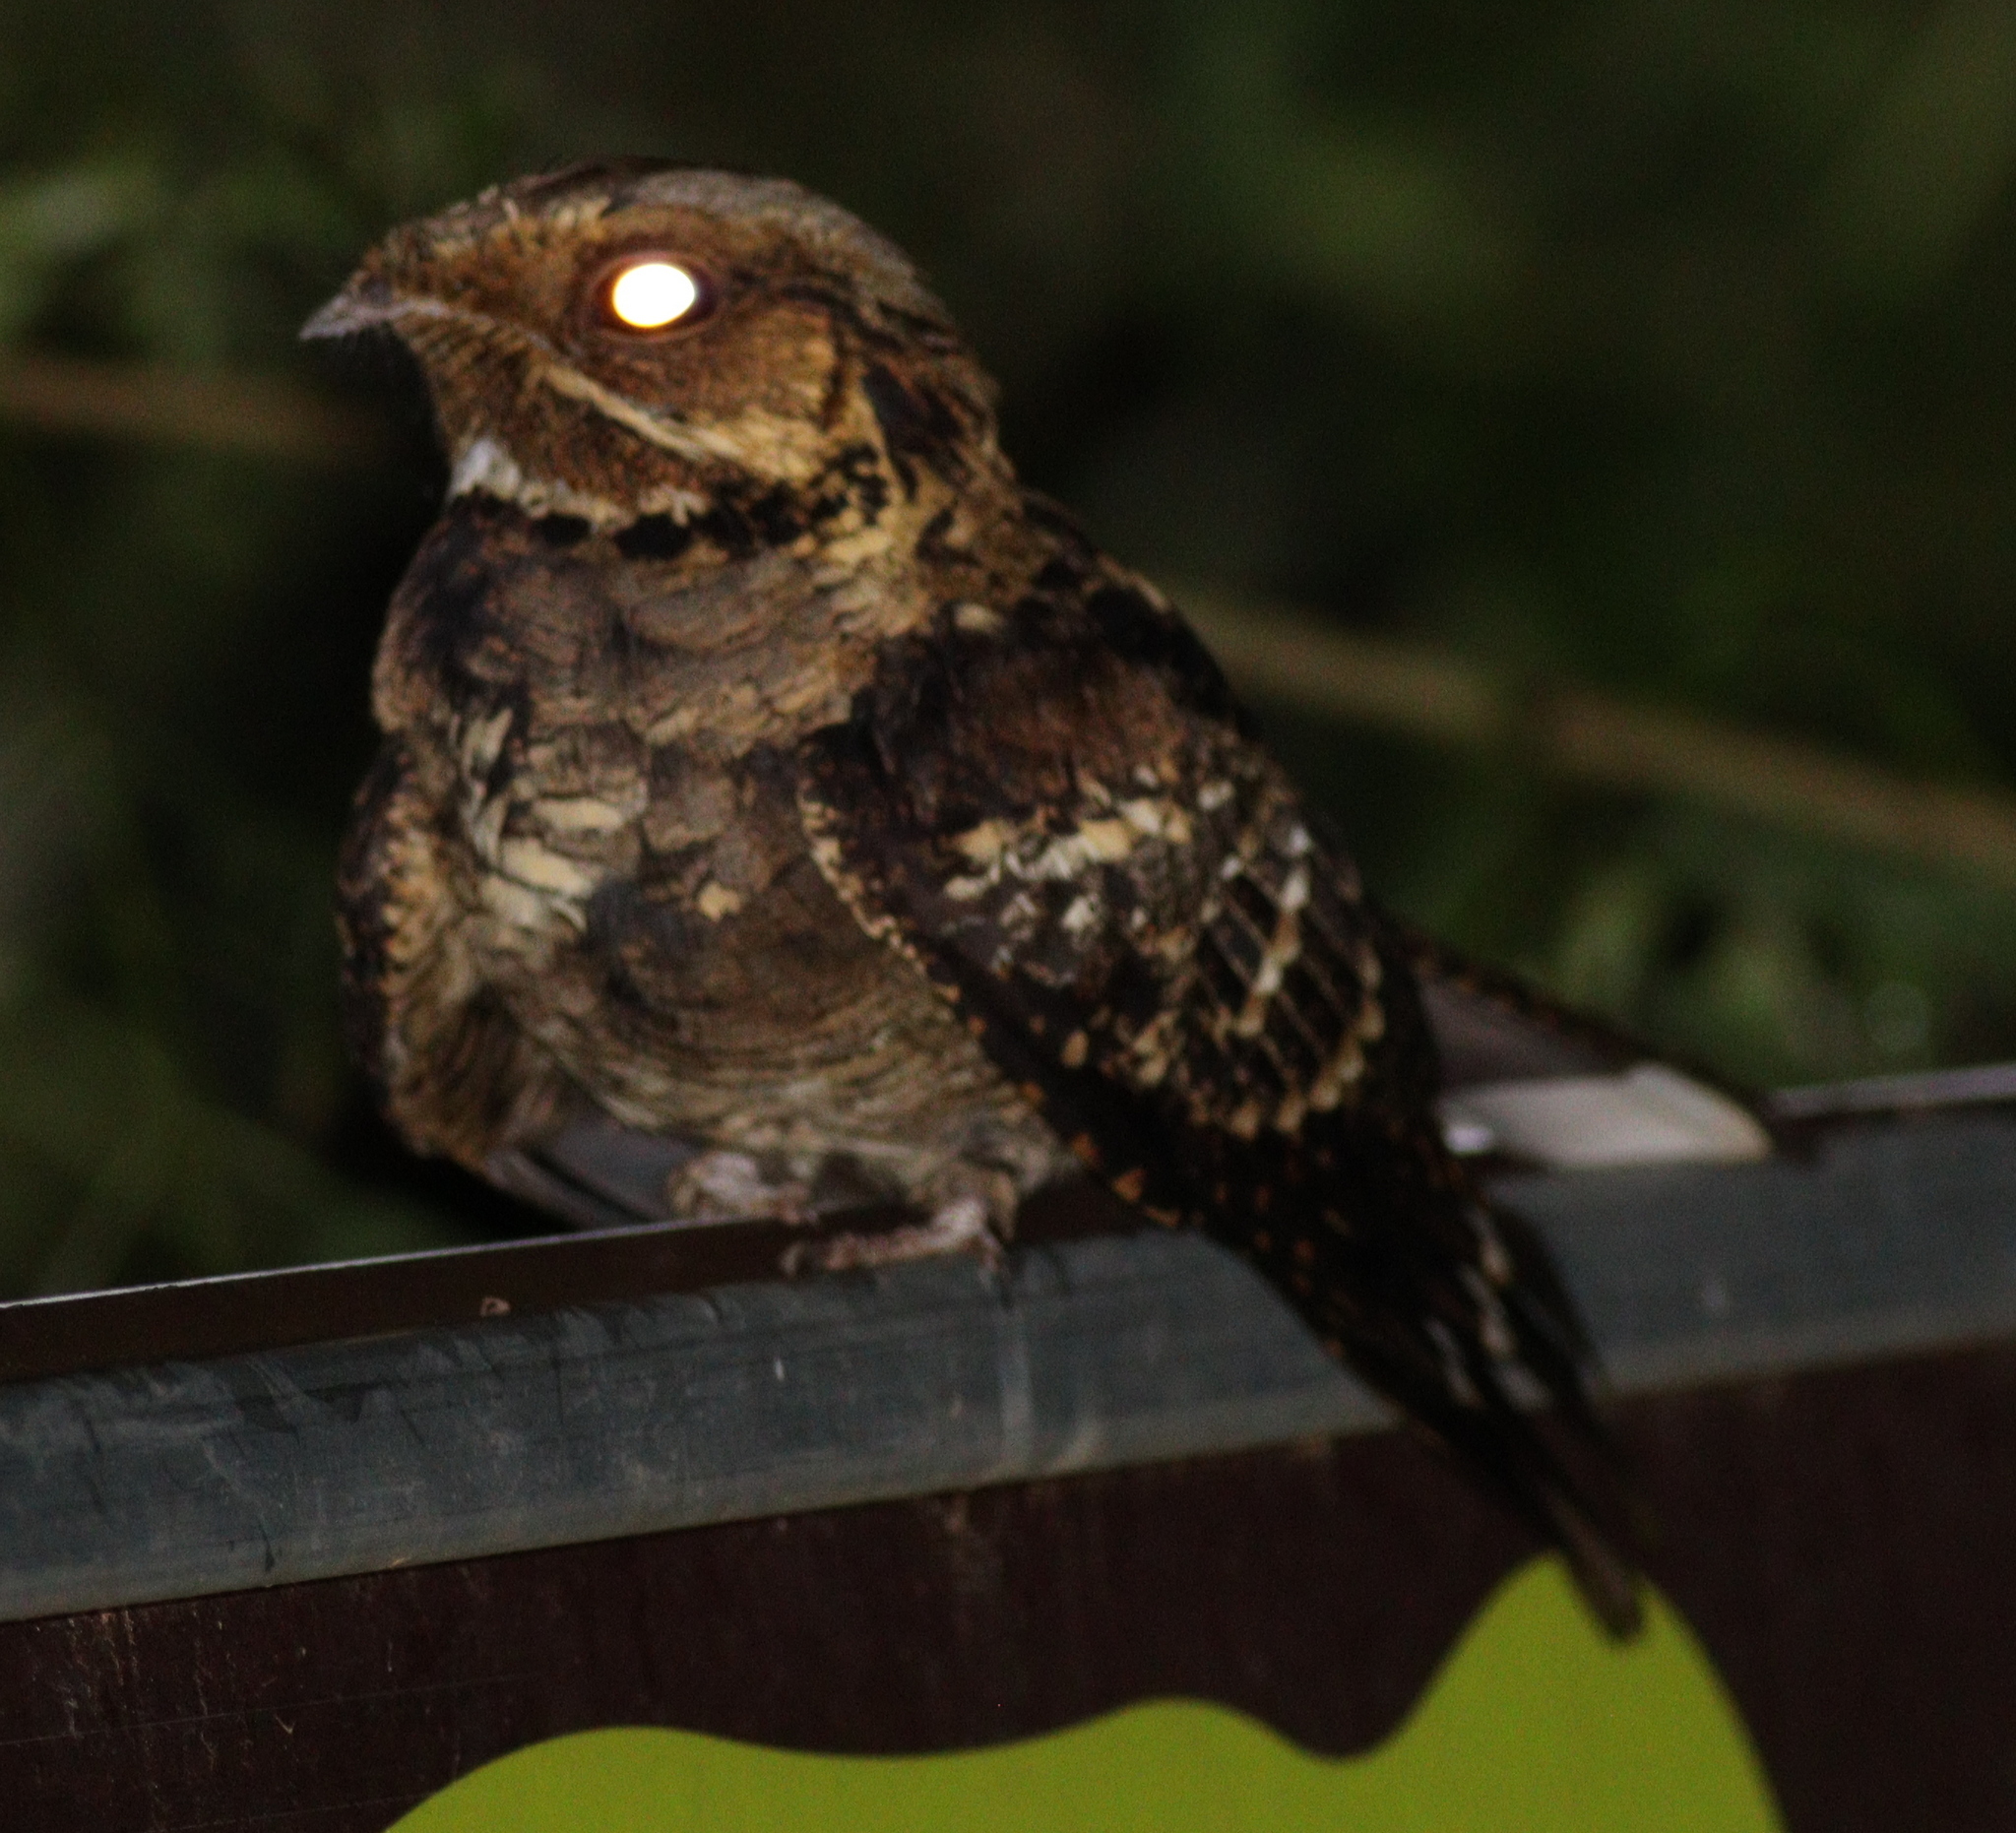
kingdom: Animalia
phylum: Chordata
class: Aves
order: Caprimulgiformes
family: Caprimulgidae
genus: Caprimulgus
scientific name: Caprimulgus macrurus
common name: Large-tailed nightjar
